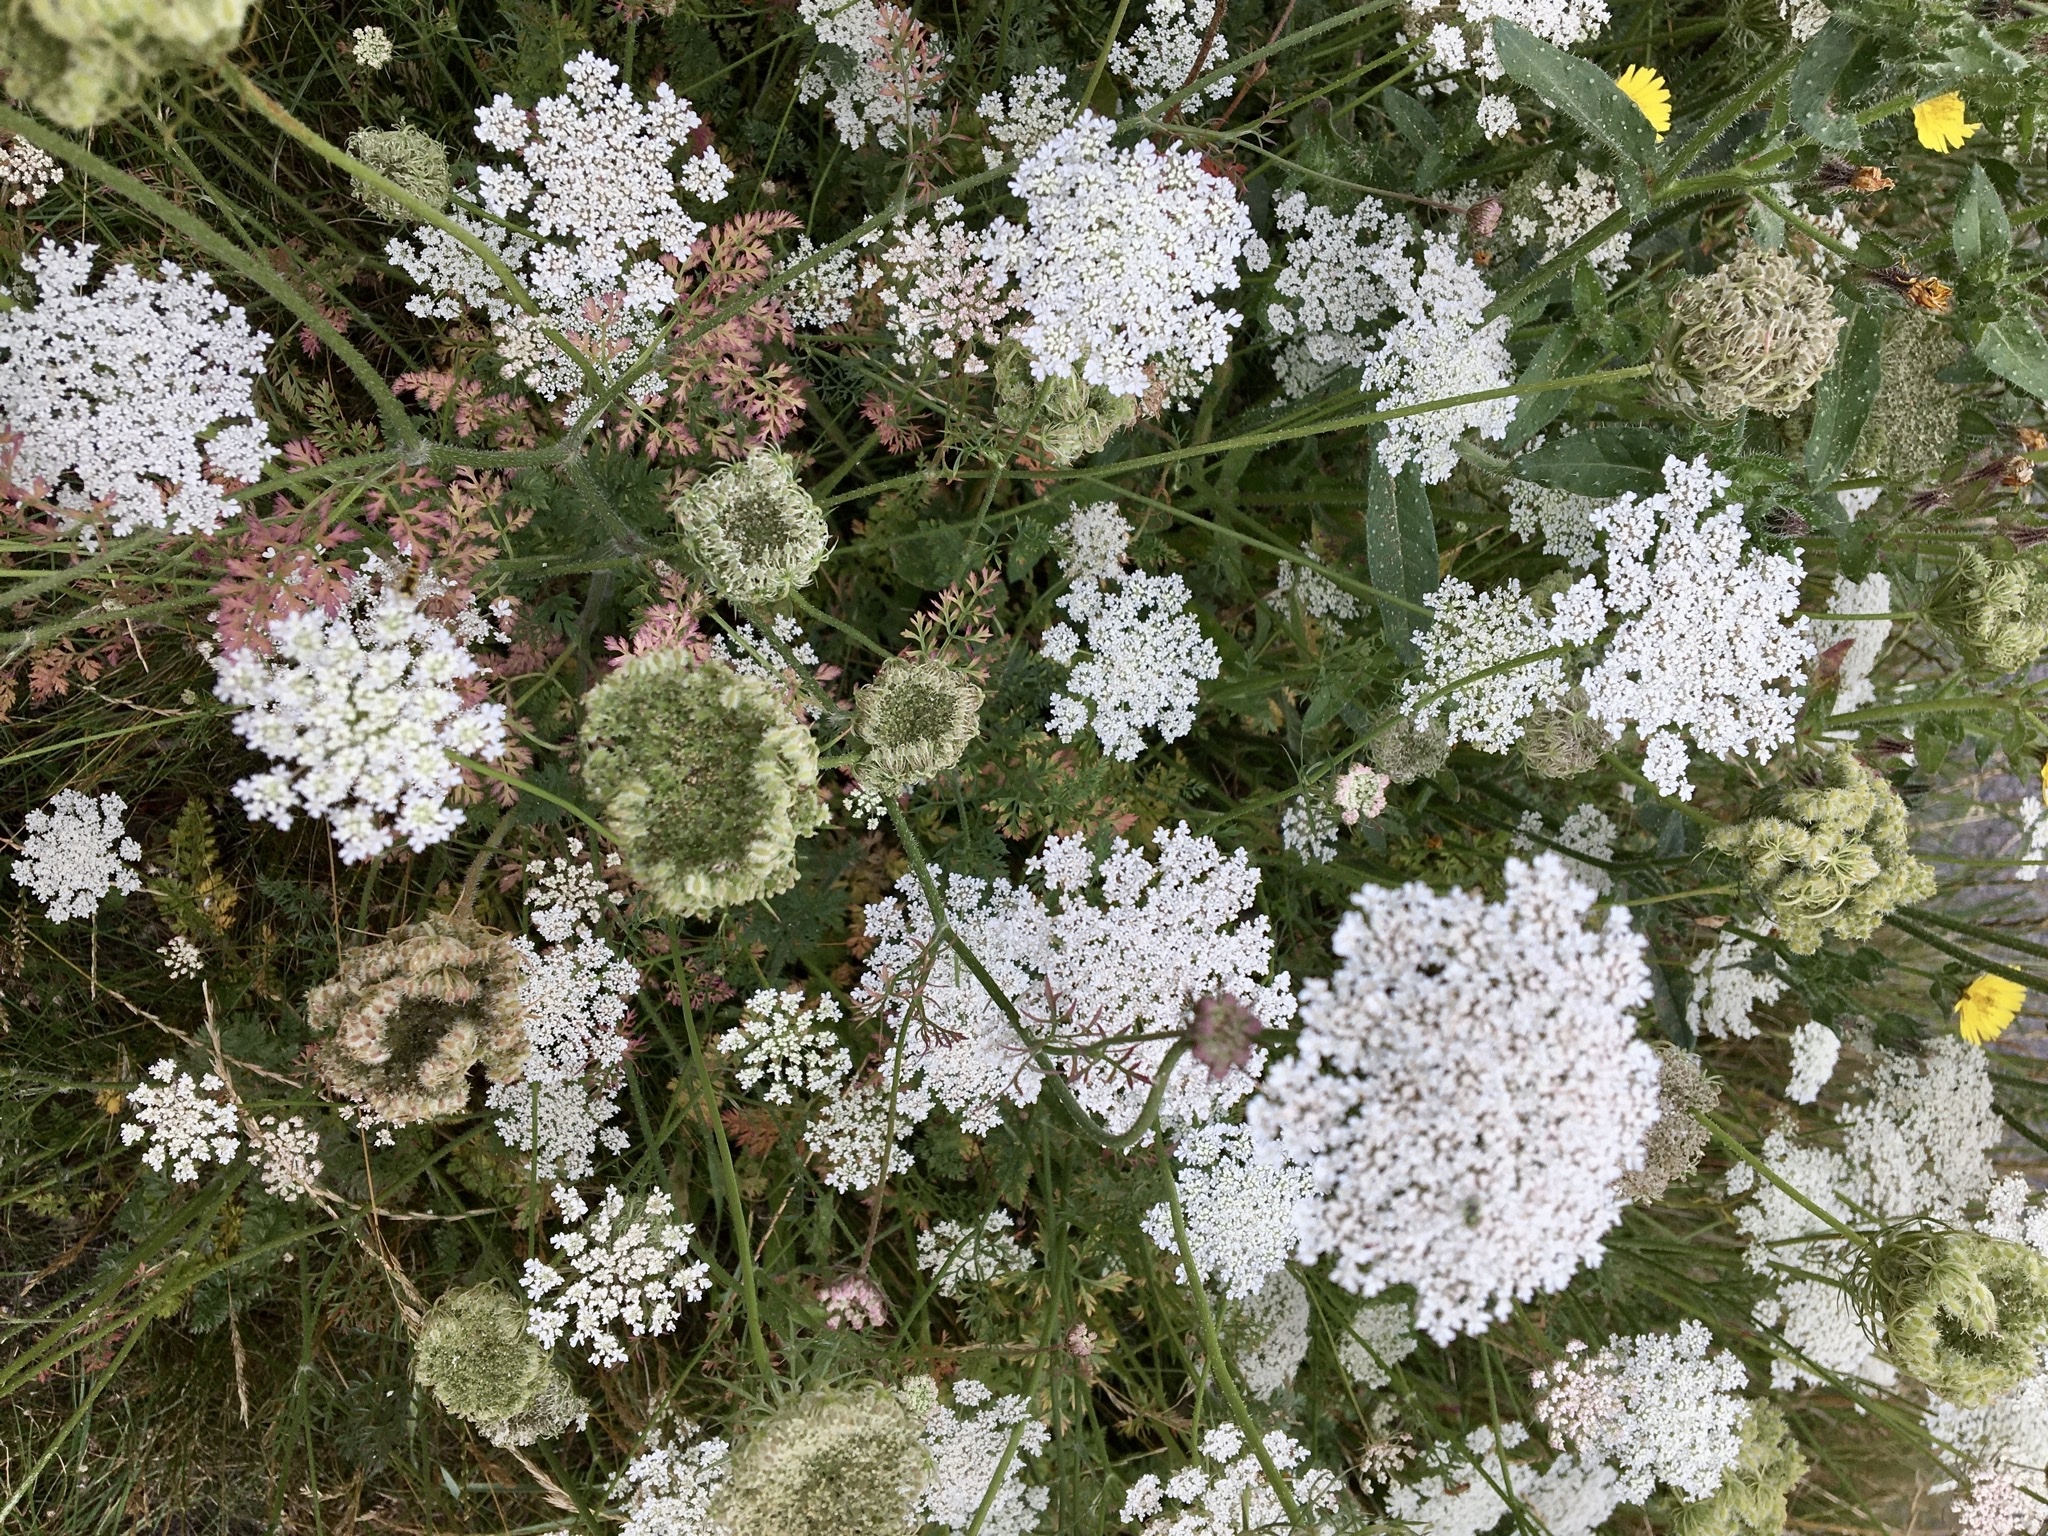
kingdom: Plantae
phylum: Tracheophyta
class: Magnoliopsida
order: Apiales
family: Apiaceae
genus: Daucus
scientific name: Daucus carota
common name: Wild carrot
